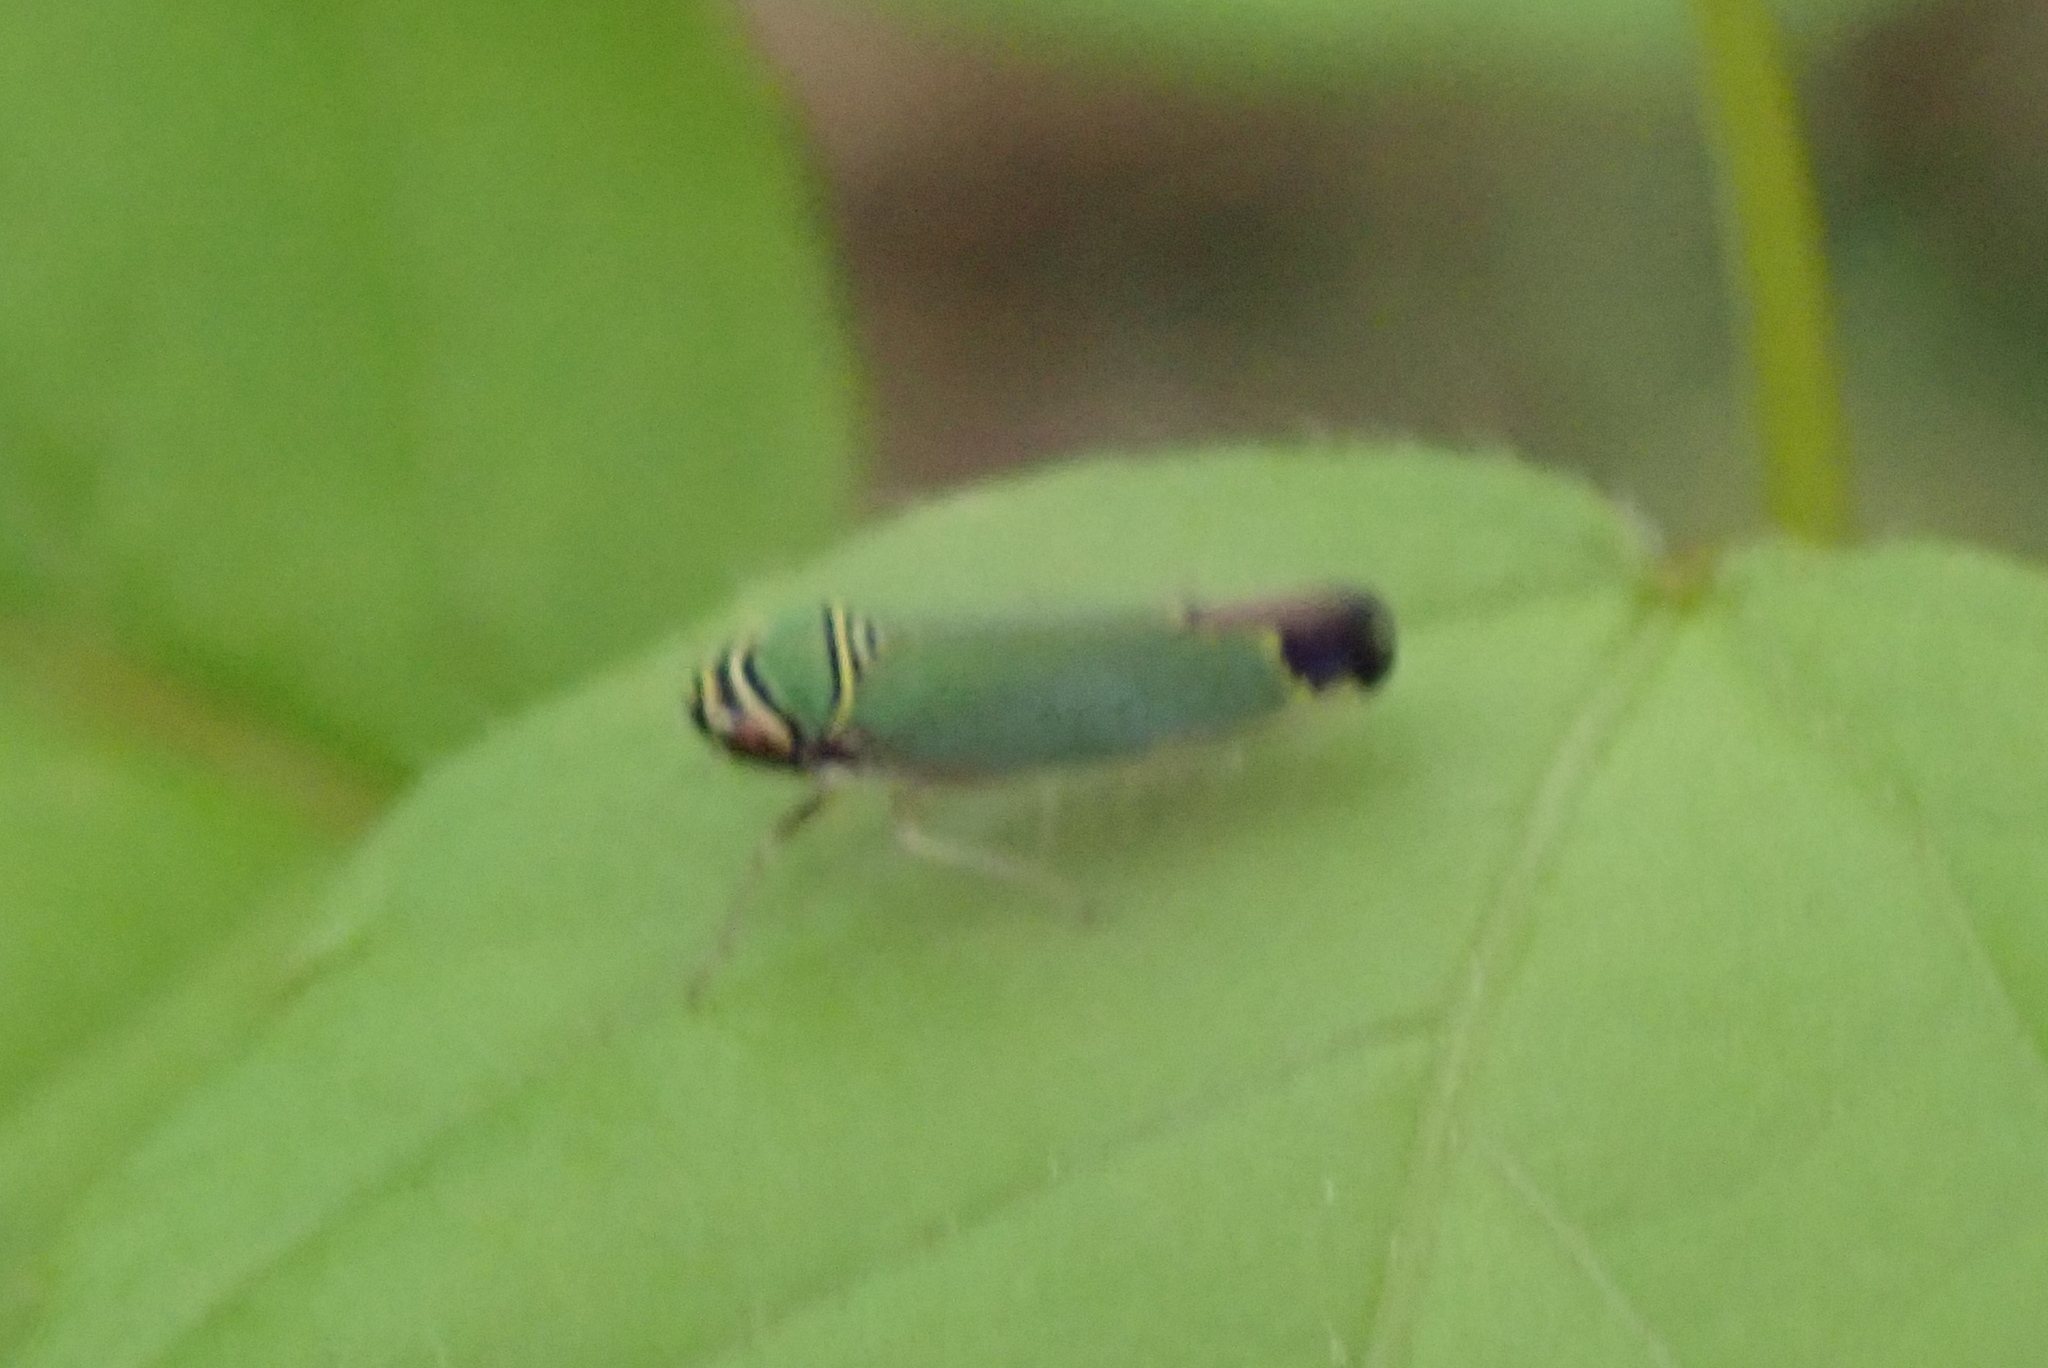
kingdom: Animalia
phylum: Arthropoda
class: Insecta
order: Hemiptera
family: Cicadellidae
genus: Tylozygus
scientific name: Tylozygus geometricus
